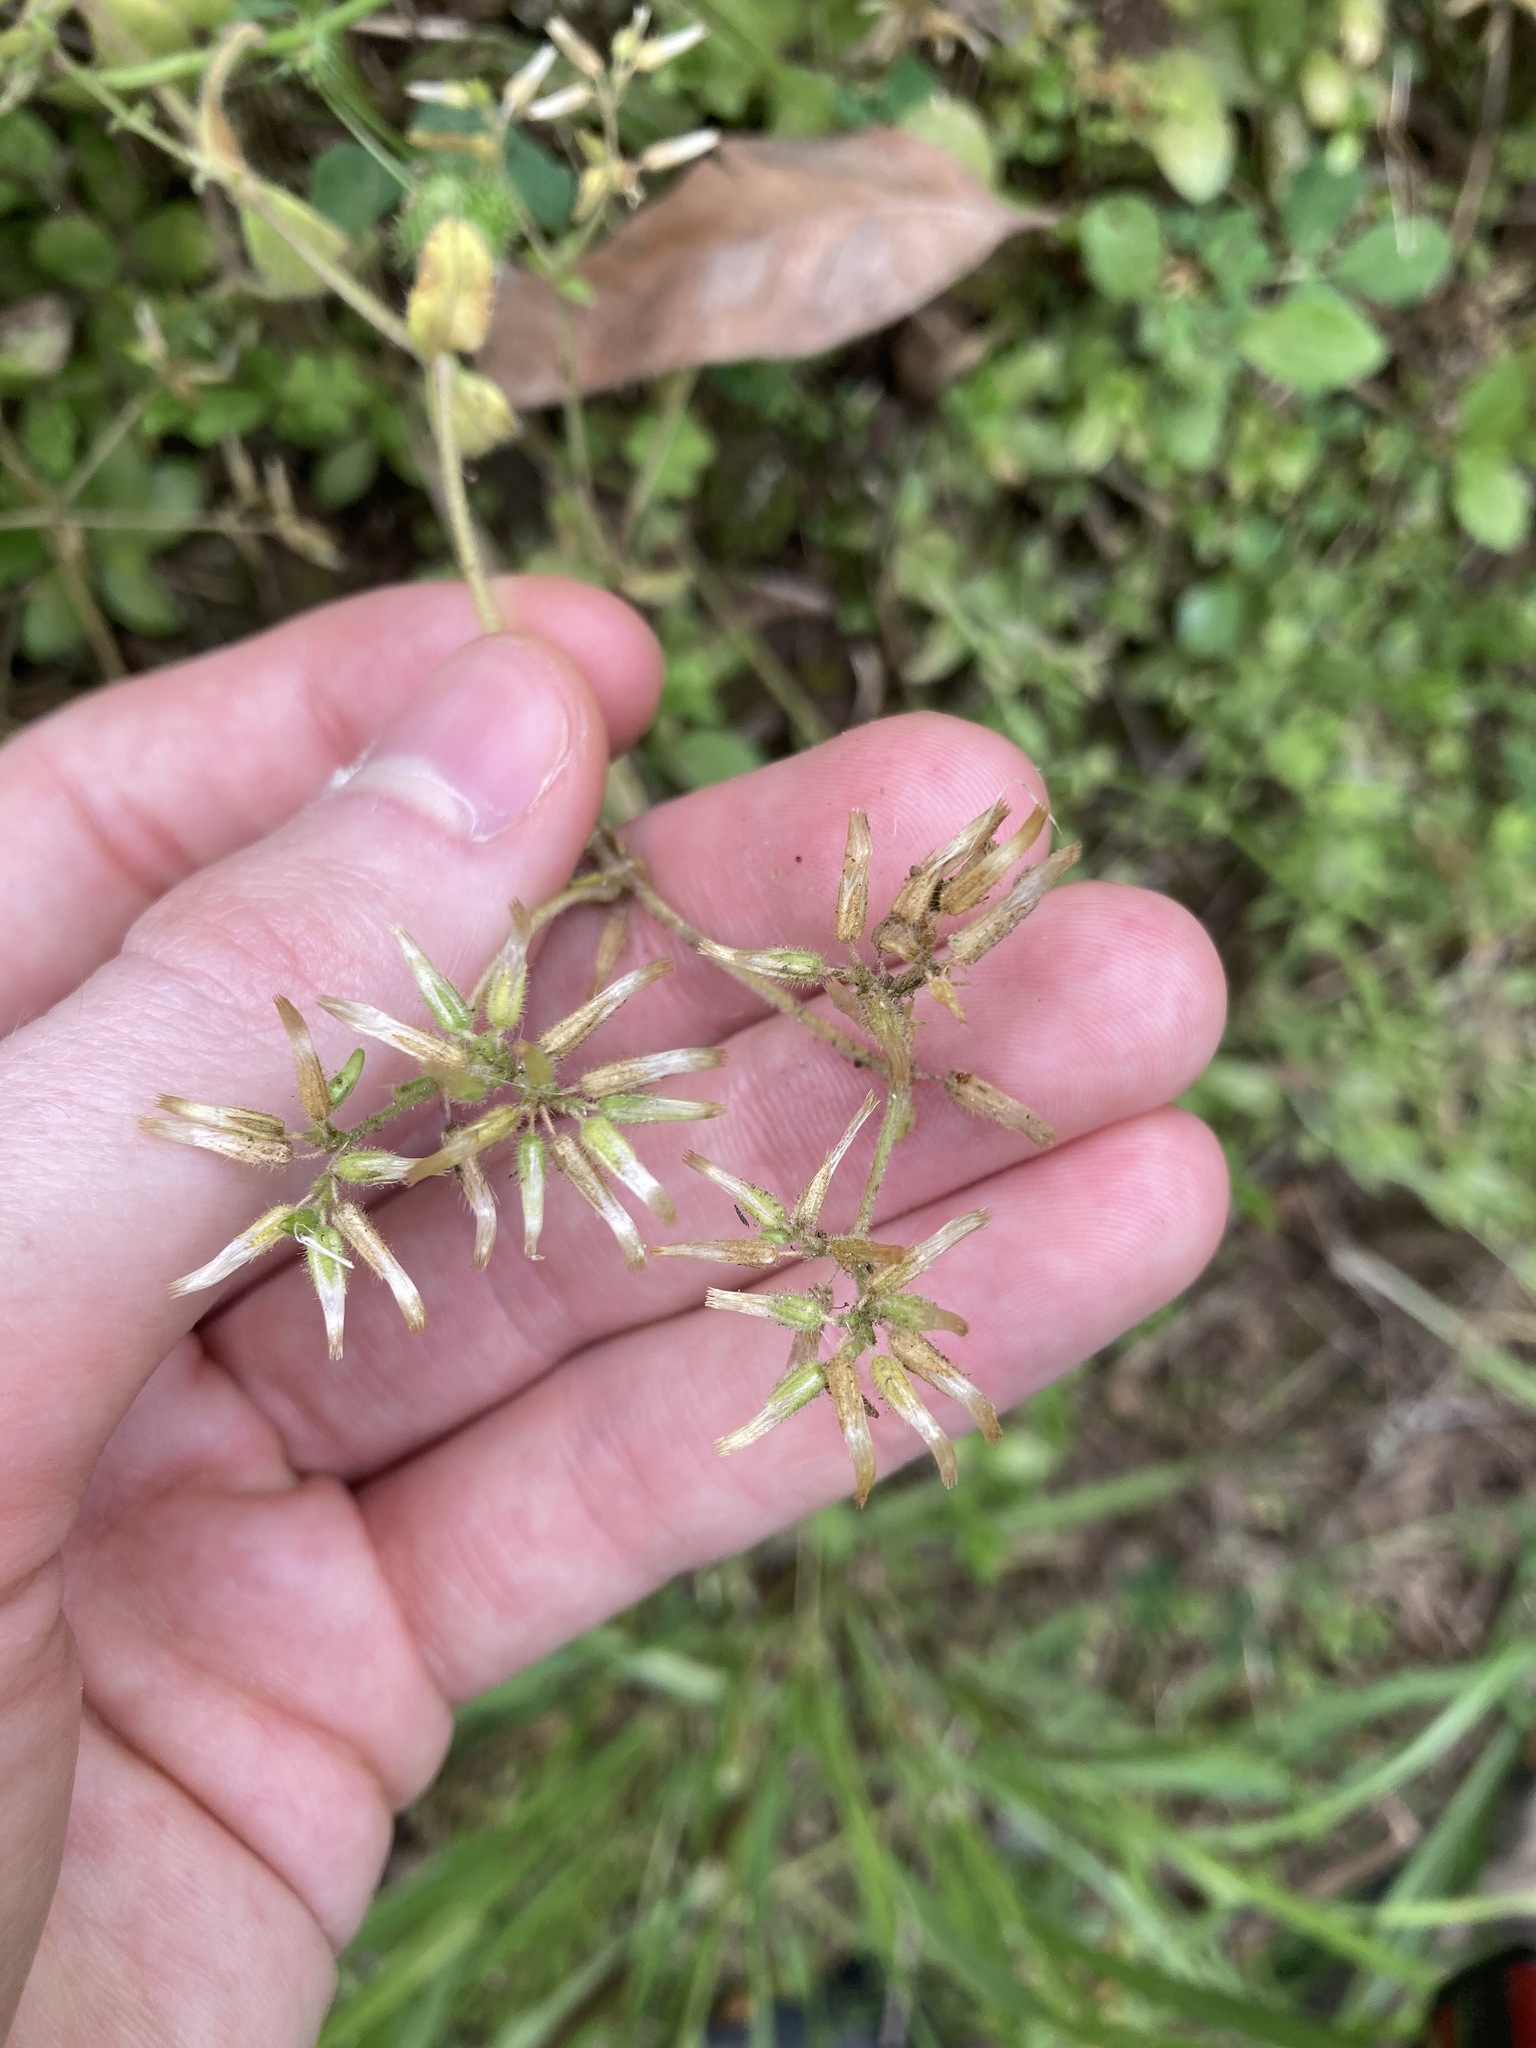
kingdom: Plantae
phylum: Tracheophyta
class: Magnoliopsida
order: Caryophyllales
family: Caryophyllaceae
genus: Cerastium
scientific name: Cerastium glomeratum
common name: Sticky chickweed
